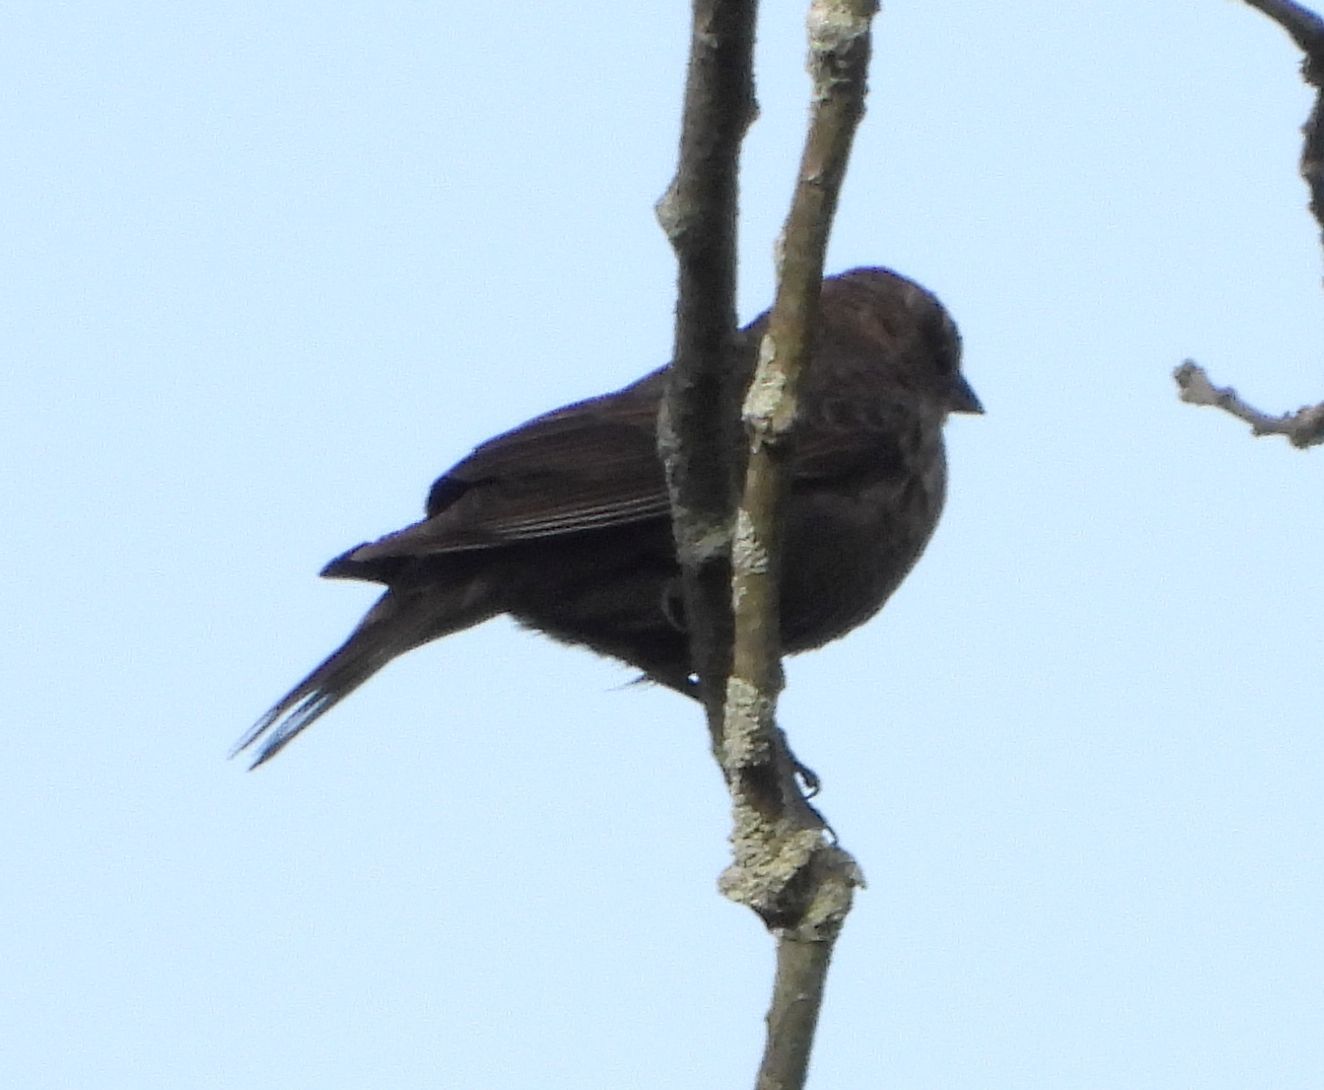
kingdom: Animalia
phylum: Chordata
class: Aves
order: Passeriformes
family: Icteridae
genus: Molothrus
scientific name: Molothrus ater
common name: Brown-headed cowbird
